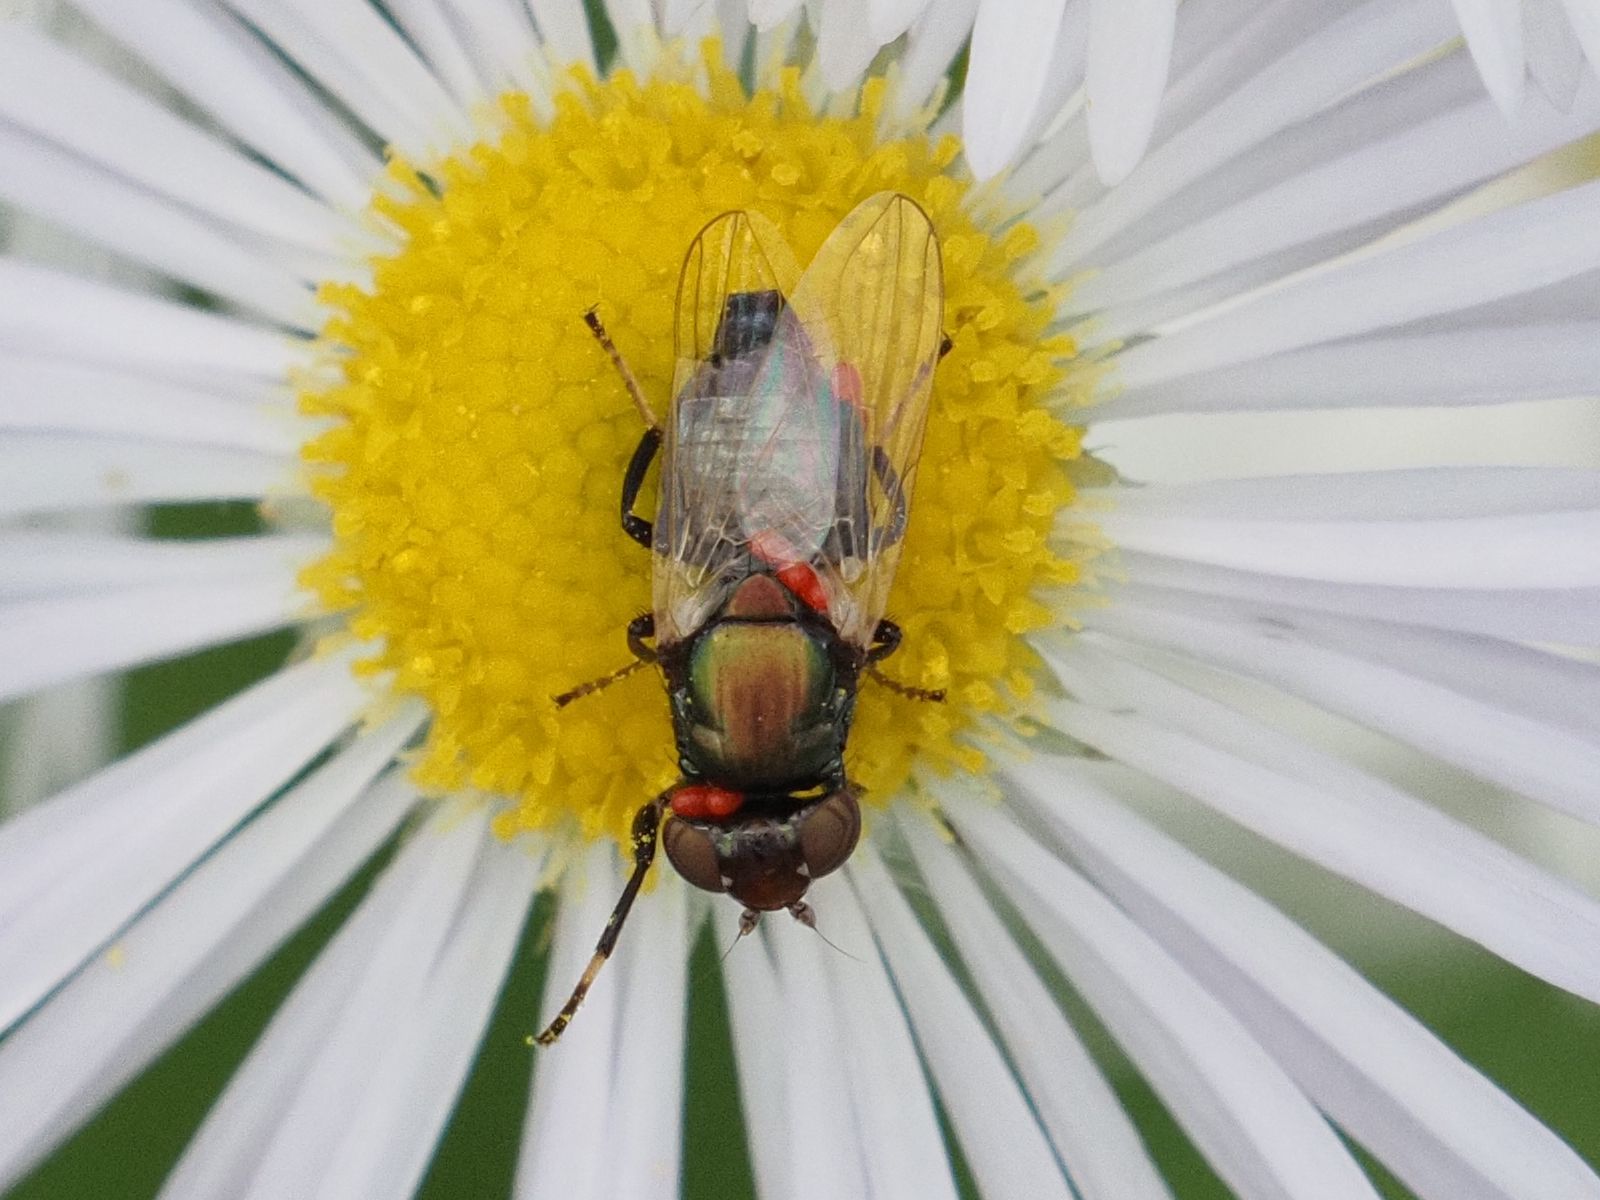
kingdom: Animalia
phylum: Arthropoda
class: Insecta
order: Diptera
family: Ulidiidae
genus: Physiphora
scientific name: Physiphora alceae
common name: Picture-winged fly
